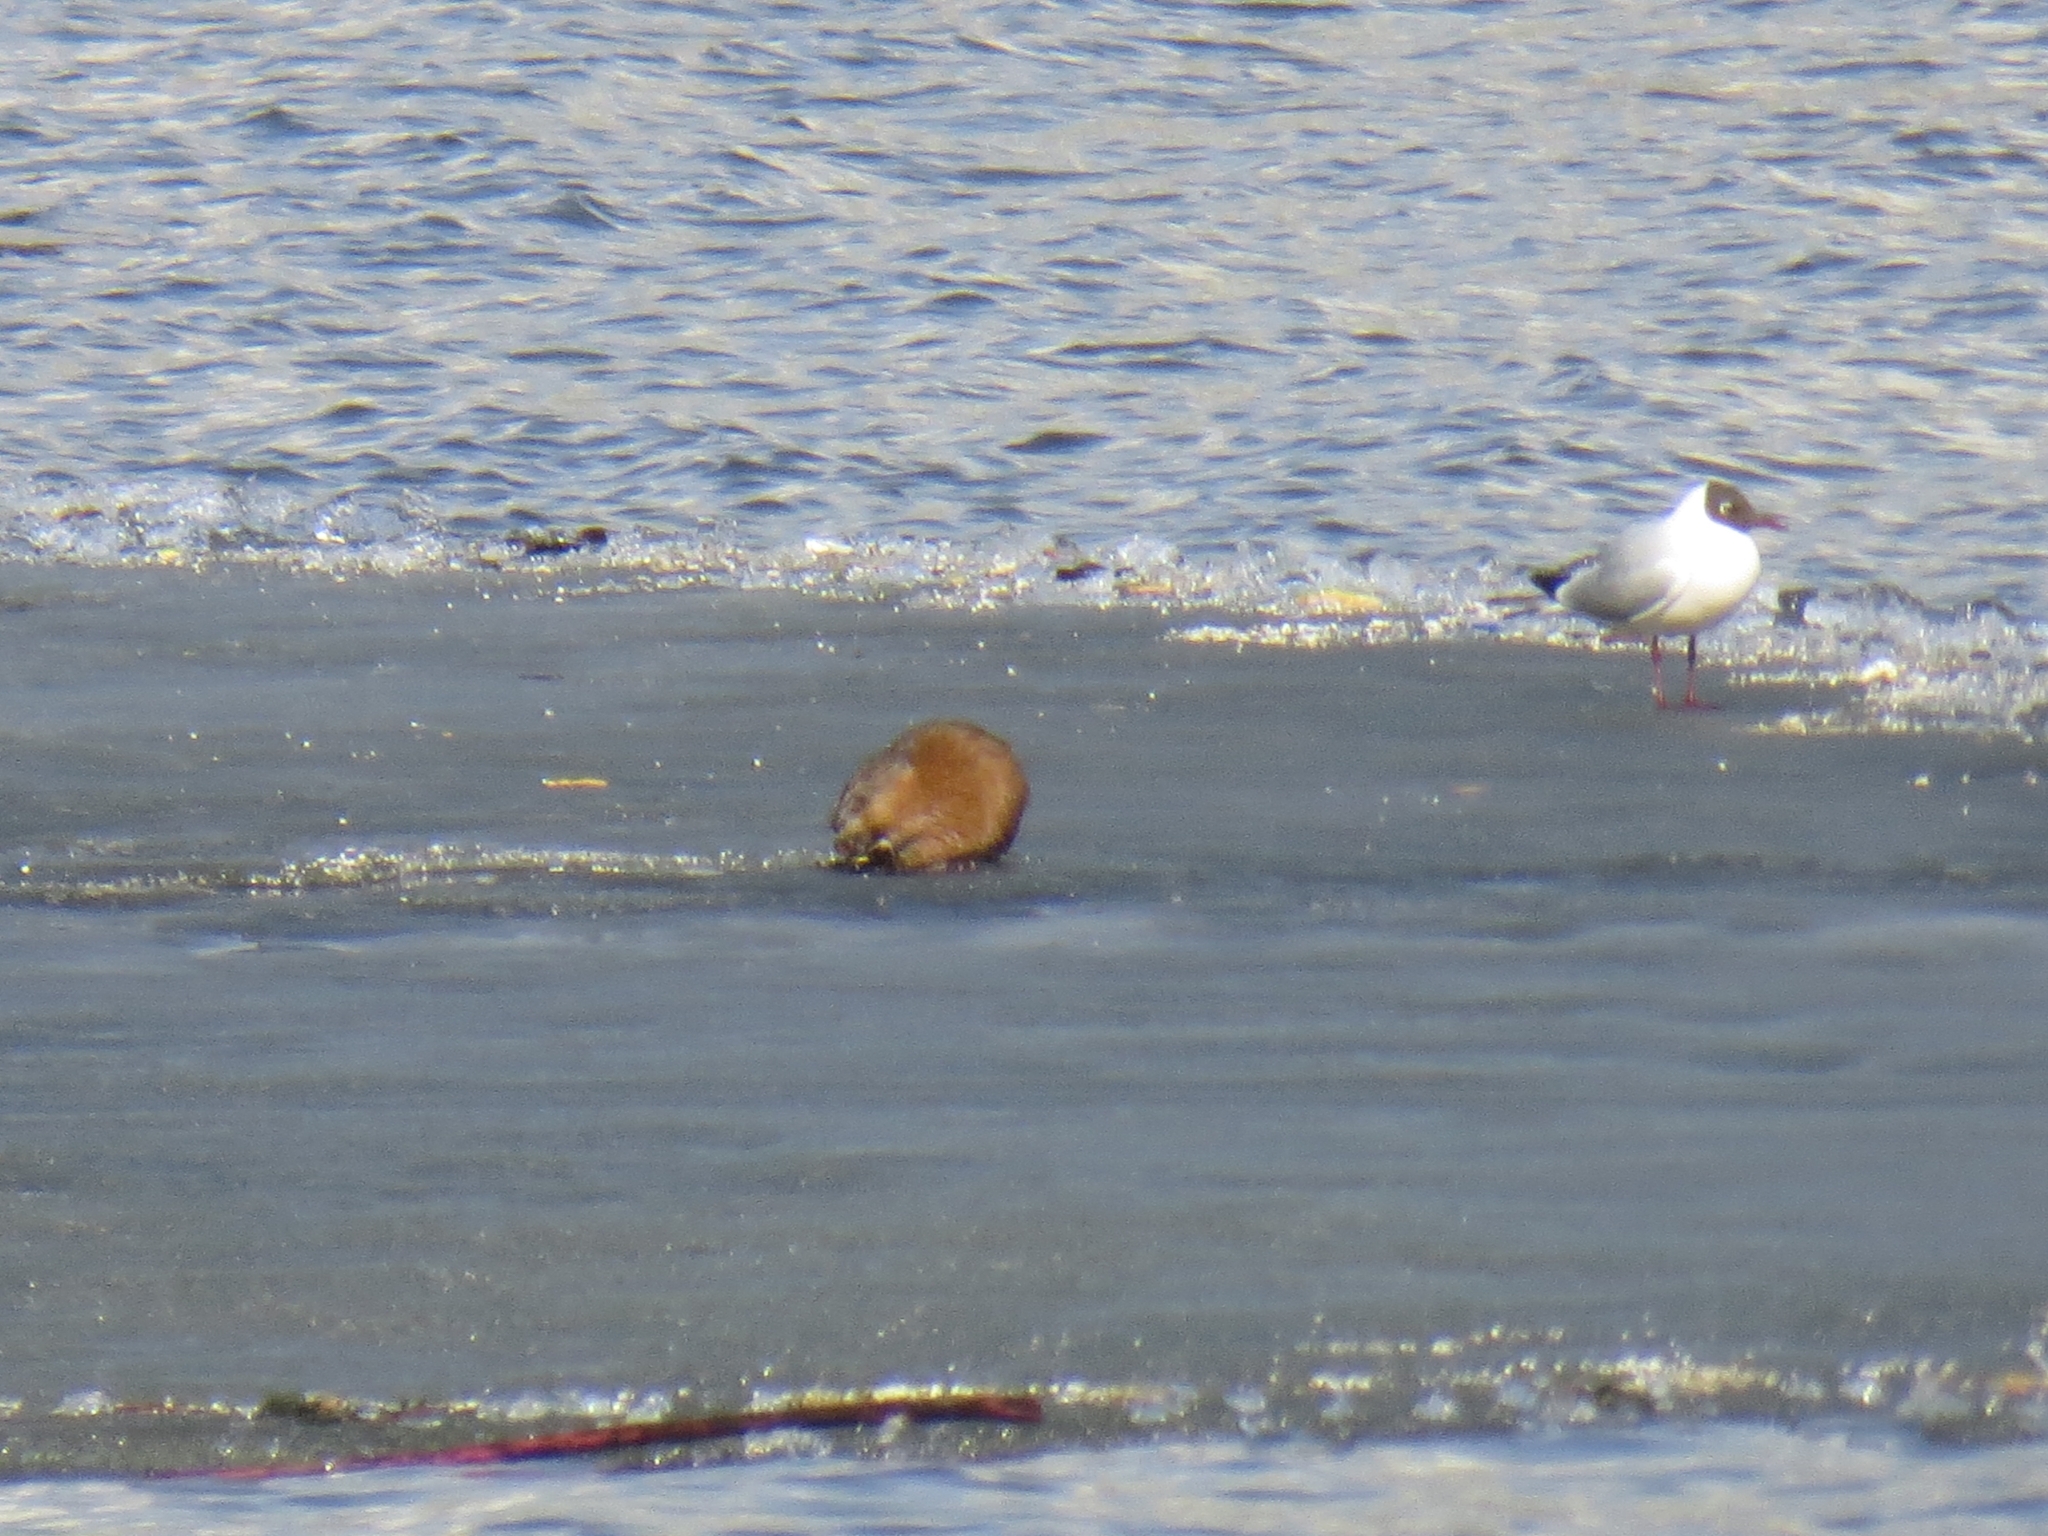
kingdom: Animalia
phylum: Chordata
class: Mammalia
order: Rodentia
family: Cricetidae
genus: Ondatra
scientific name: Ondatra zibethicus
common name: Muskrat
